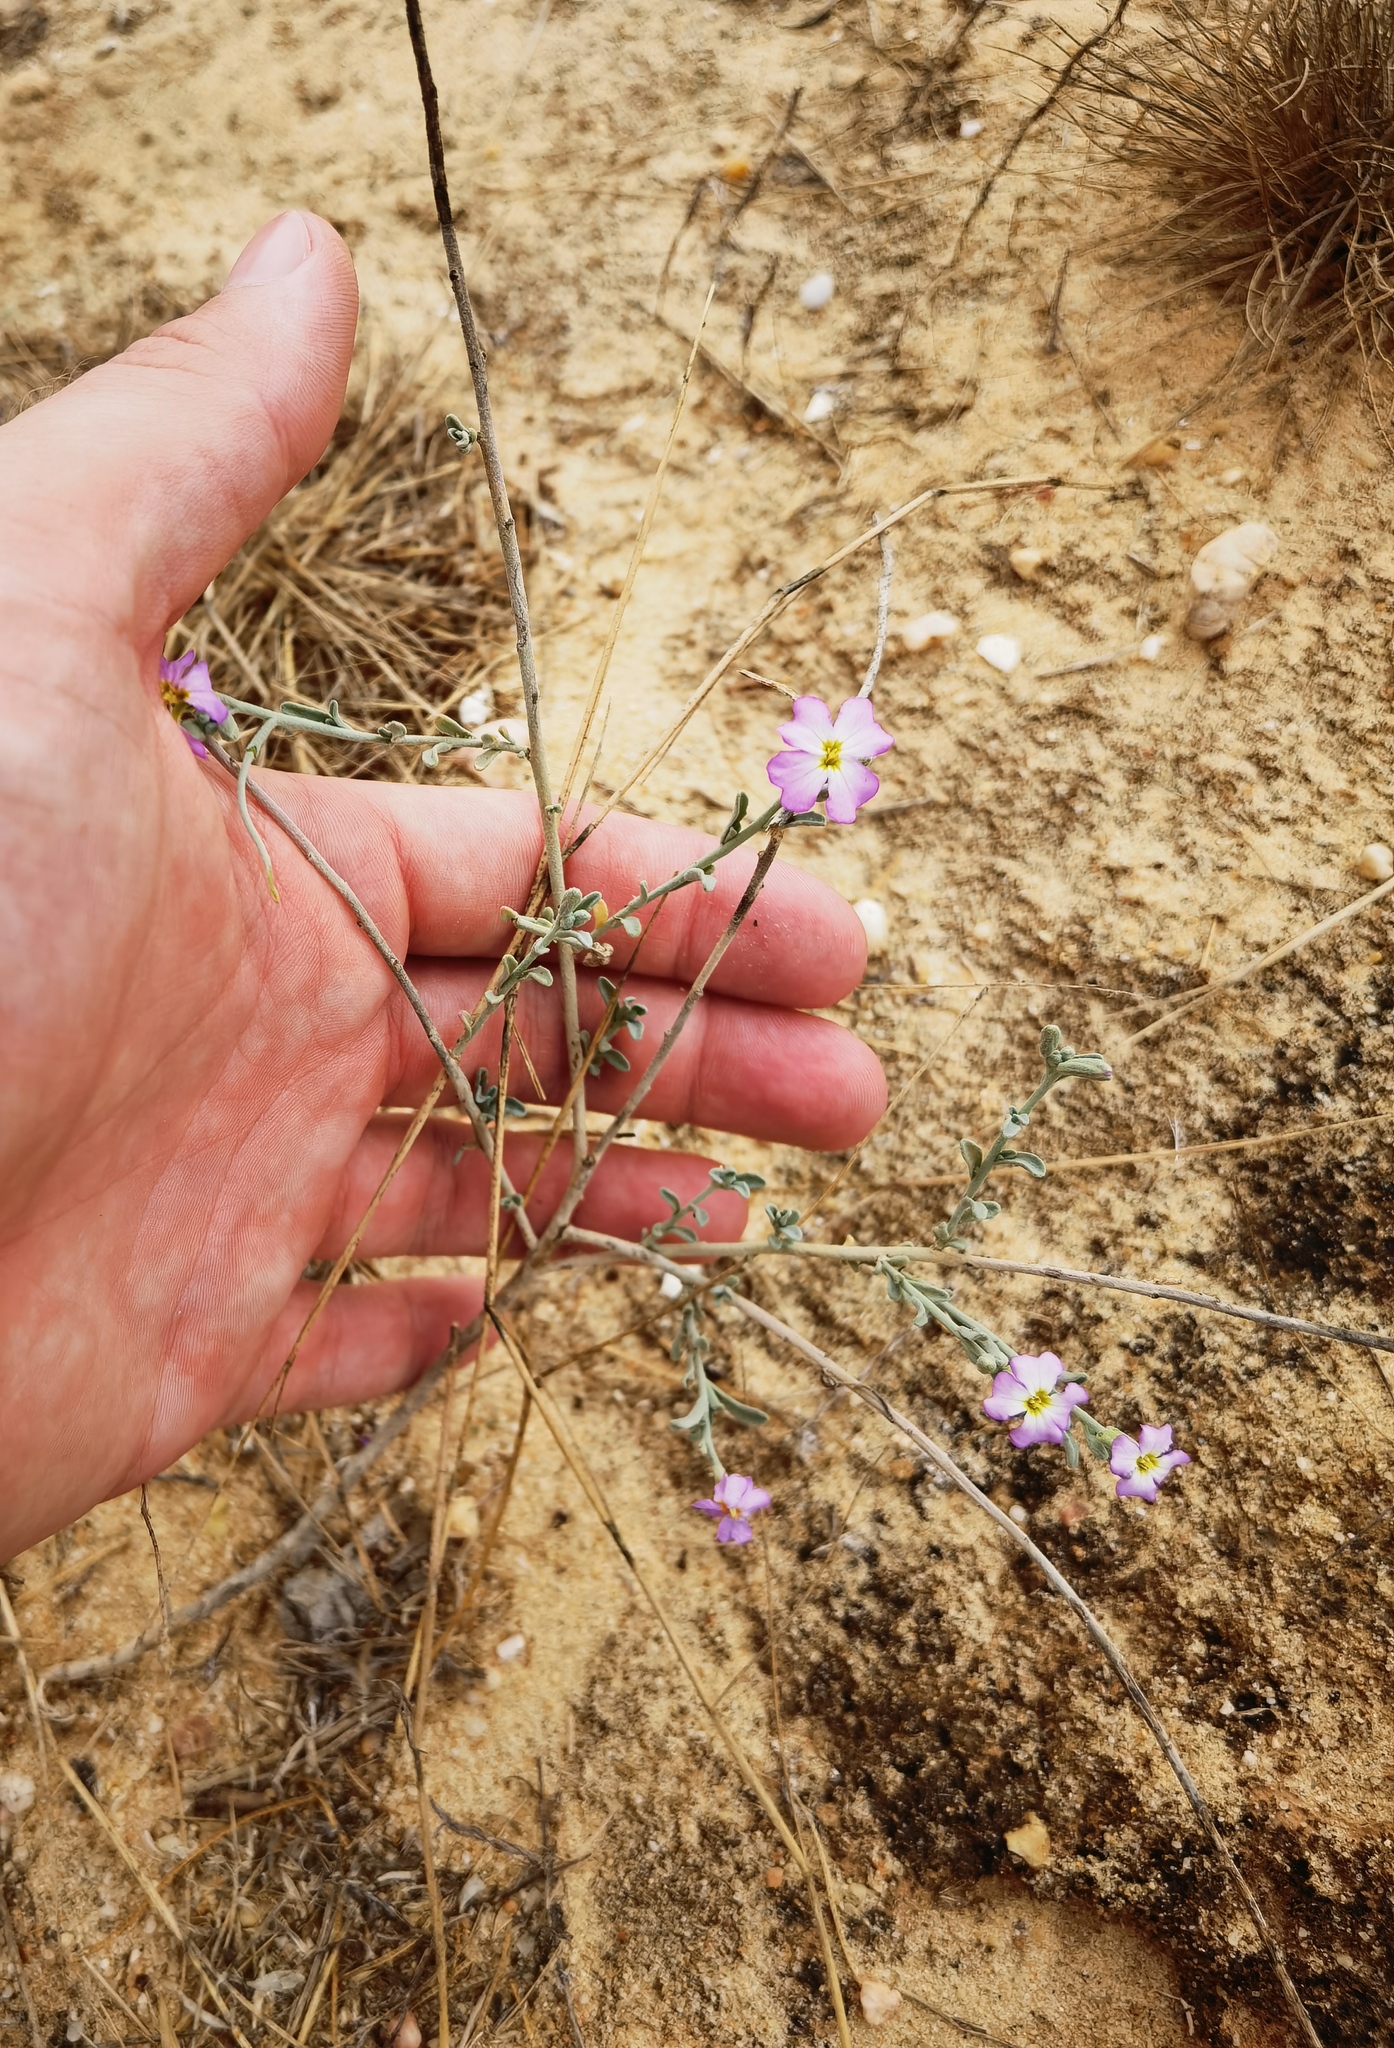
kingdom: Plantae
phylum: Tracheophyta
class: Magnoliopsida
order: Brassicales
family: Brassicaceae
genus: Marcuskochia
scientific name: Marcuskochia littorea
